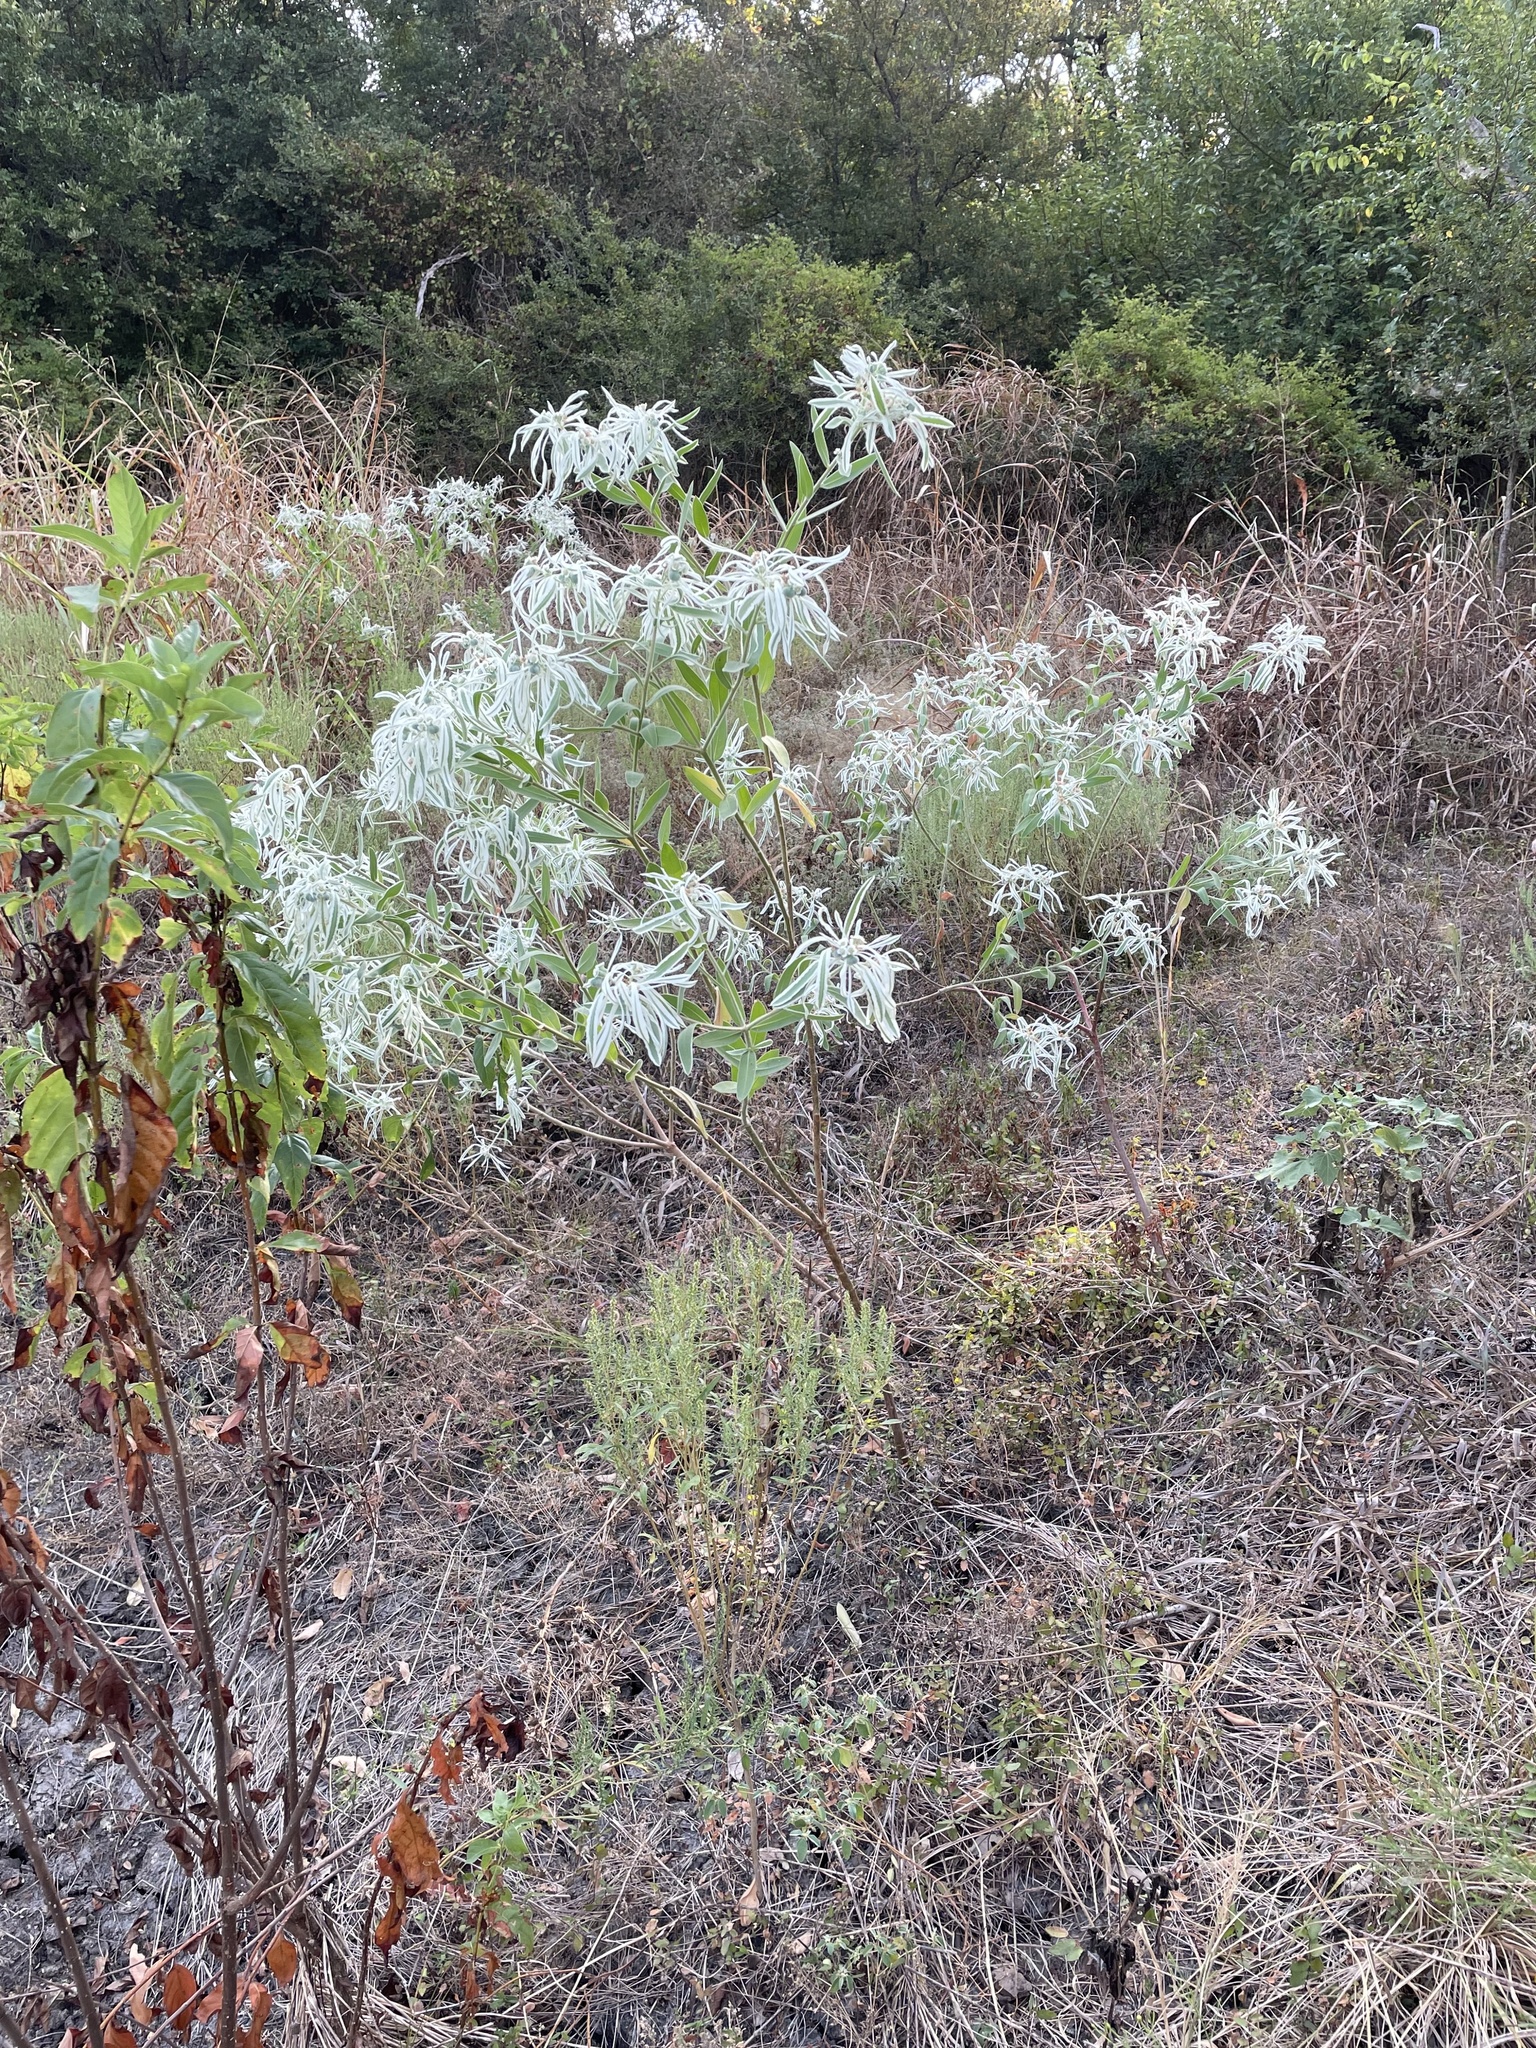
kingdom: Plantae
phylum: Tracheophyta
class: Magnoliopsida
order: Malpighiales
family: Euphorbiaceae
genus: Euphorbia
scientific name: Euphorbia bicolor
